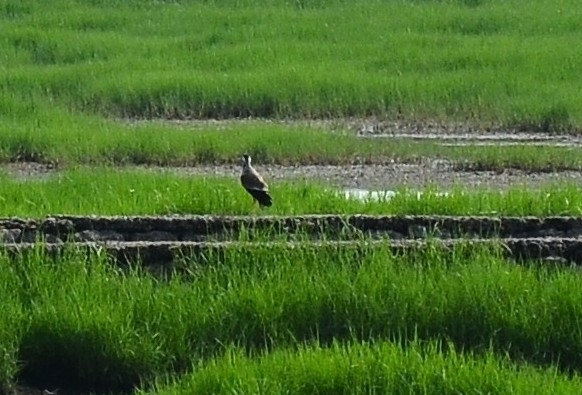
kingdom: Animalia
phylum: Chordata
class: Aves
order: Charadriiformes
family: Charadriidae
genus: Vanellus
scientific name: Vanellus indicus
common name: Red-wattled lapwing
